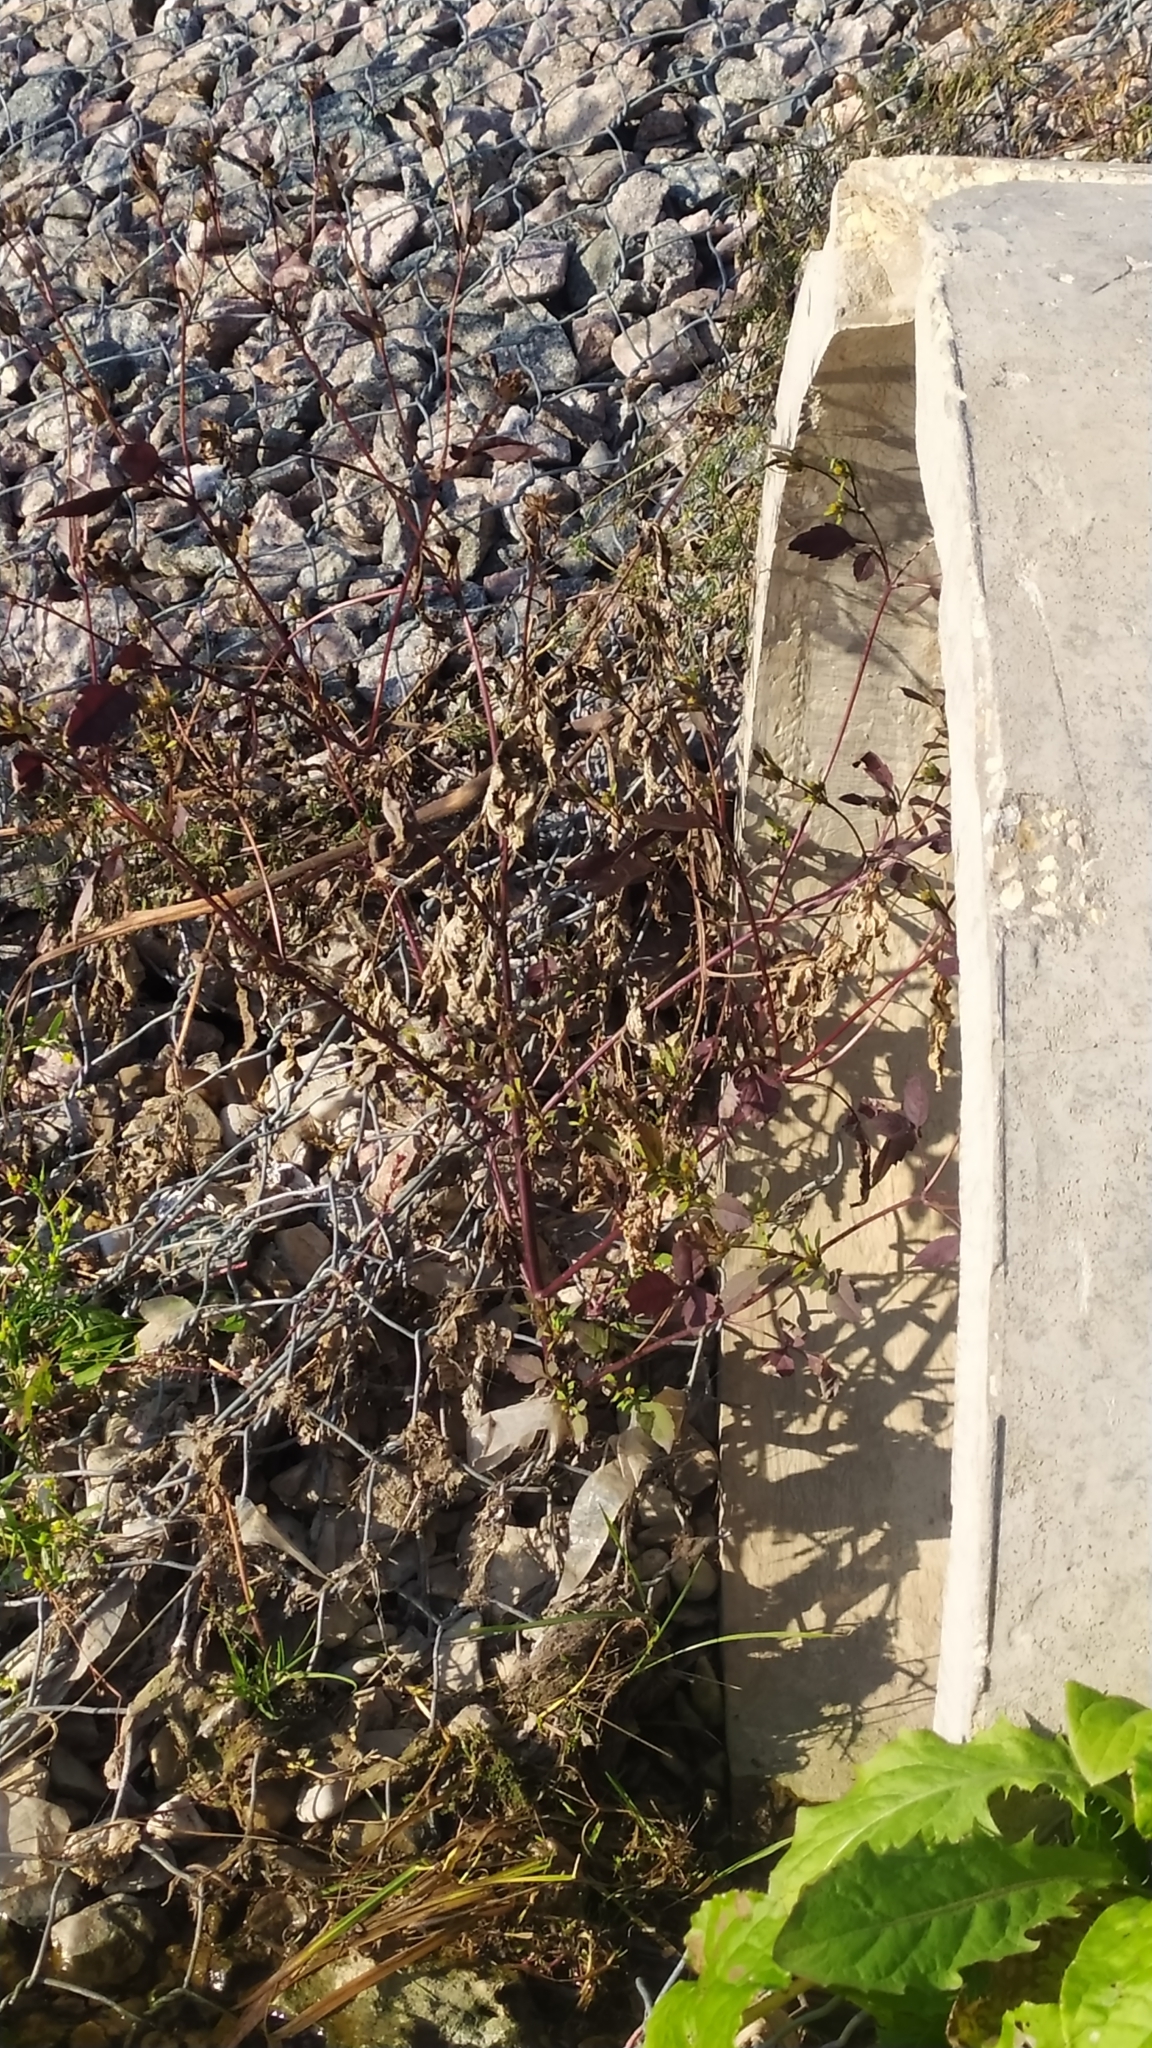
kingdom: Plantae
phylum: Tracheophyta
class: Magnoliopsida
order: Asterales
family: Asteraceae
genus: Bidens
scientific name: Bidens frondosa
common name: Beggarticks
